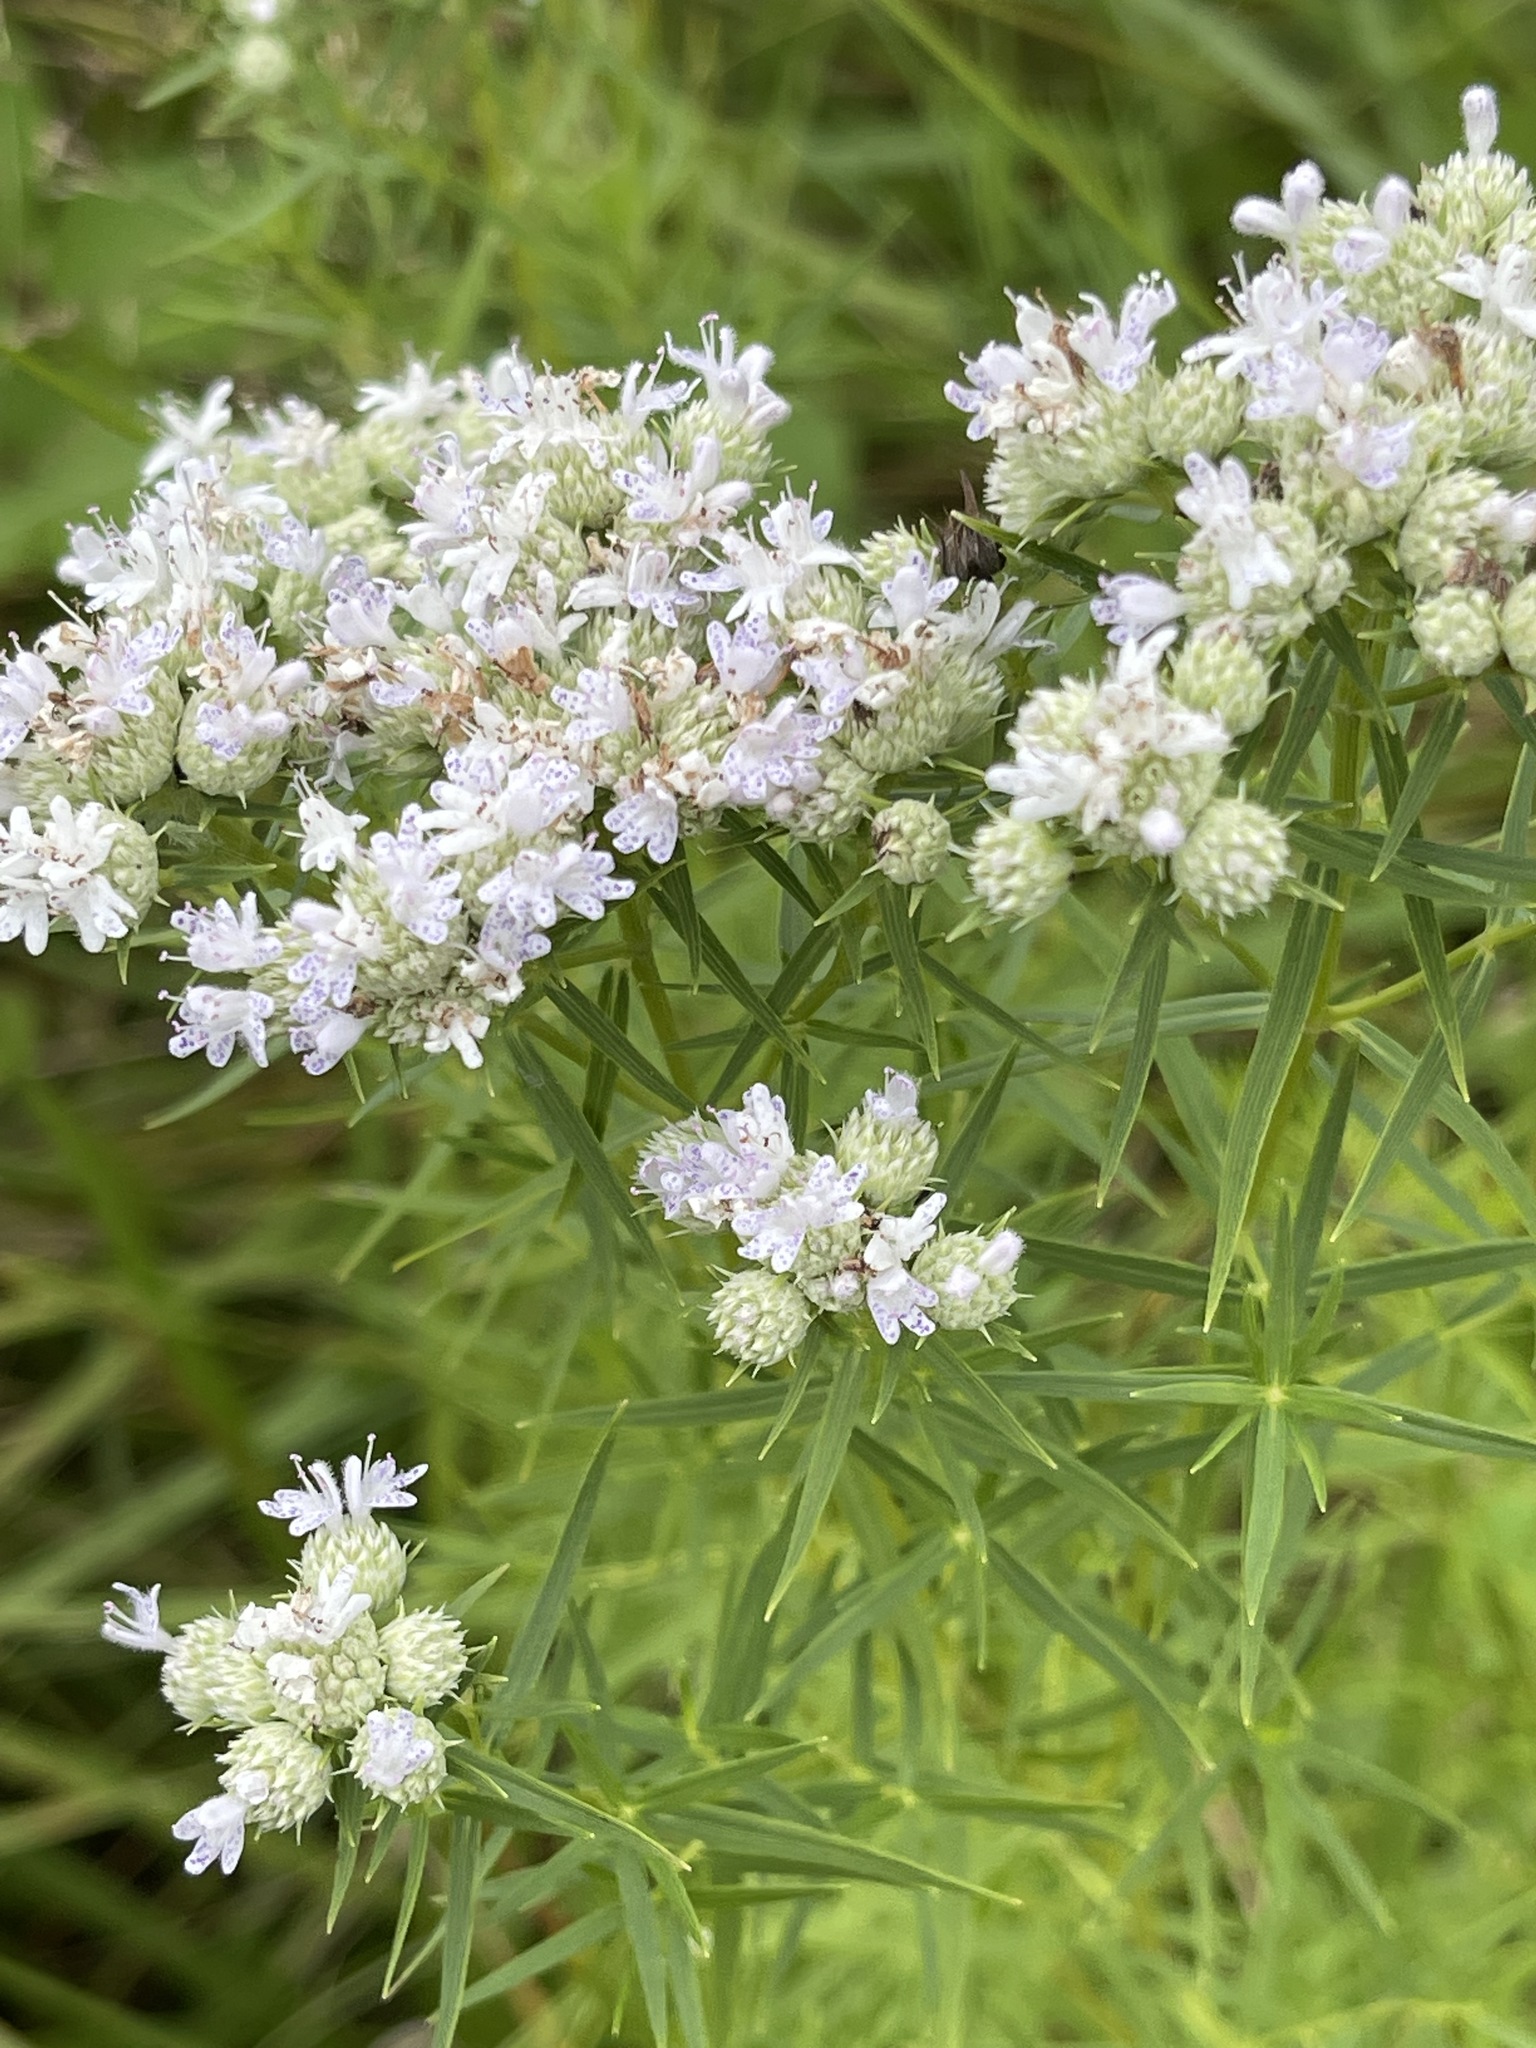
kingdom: Plantae
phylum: Tracheophyta
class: Magnoliopsida
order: Lamiales
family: Lamiaceae
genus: Pycnanthemum
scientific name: Pycnanthemum tenuifolium
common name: Narrow-leaf mountain-mint
